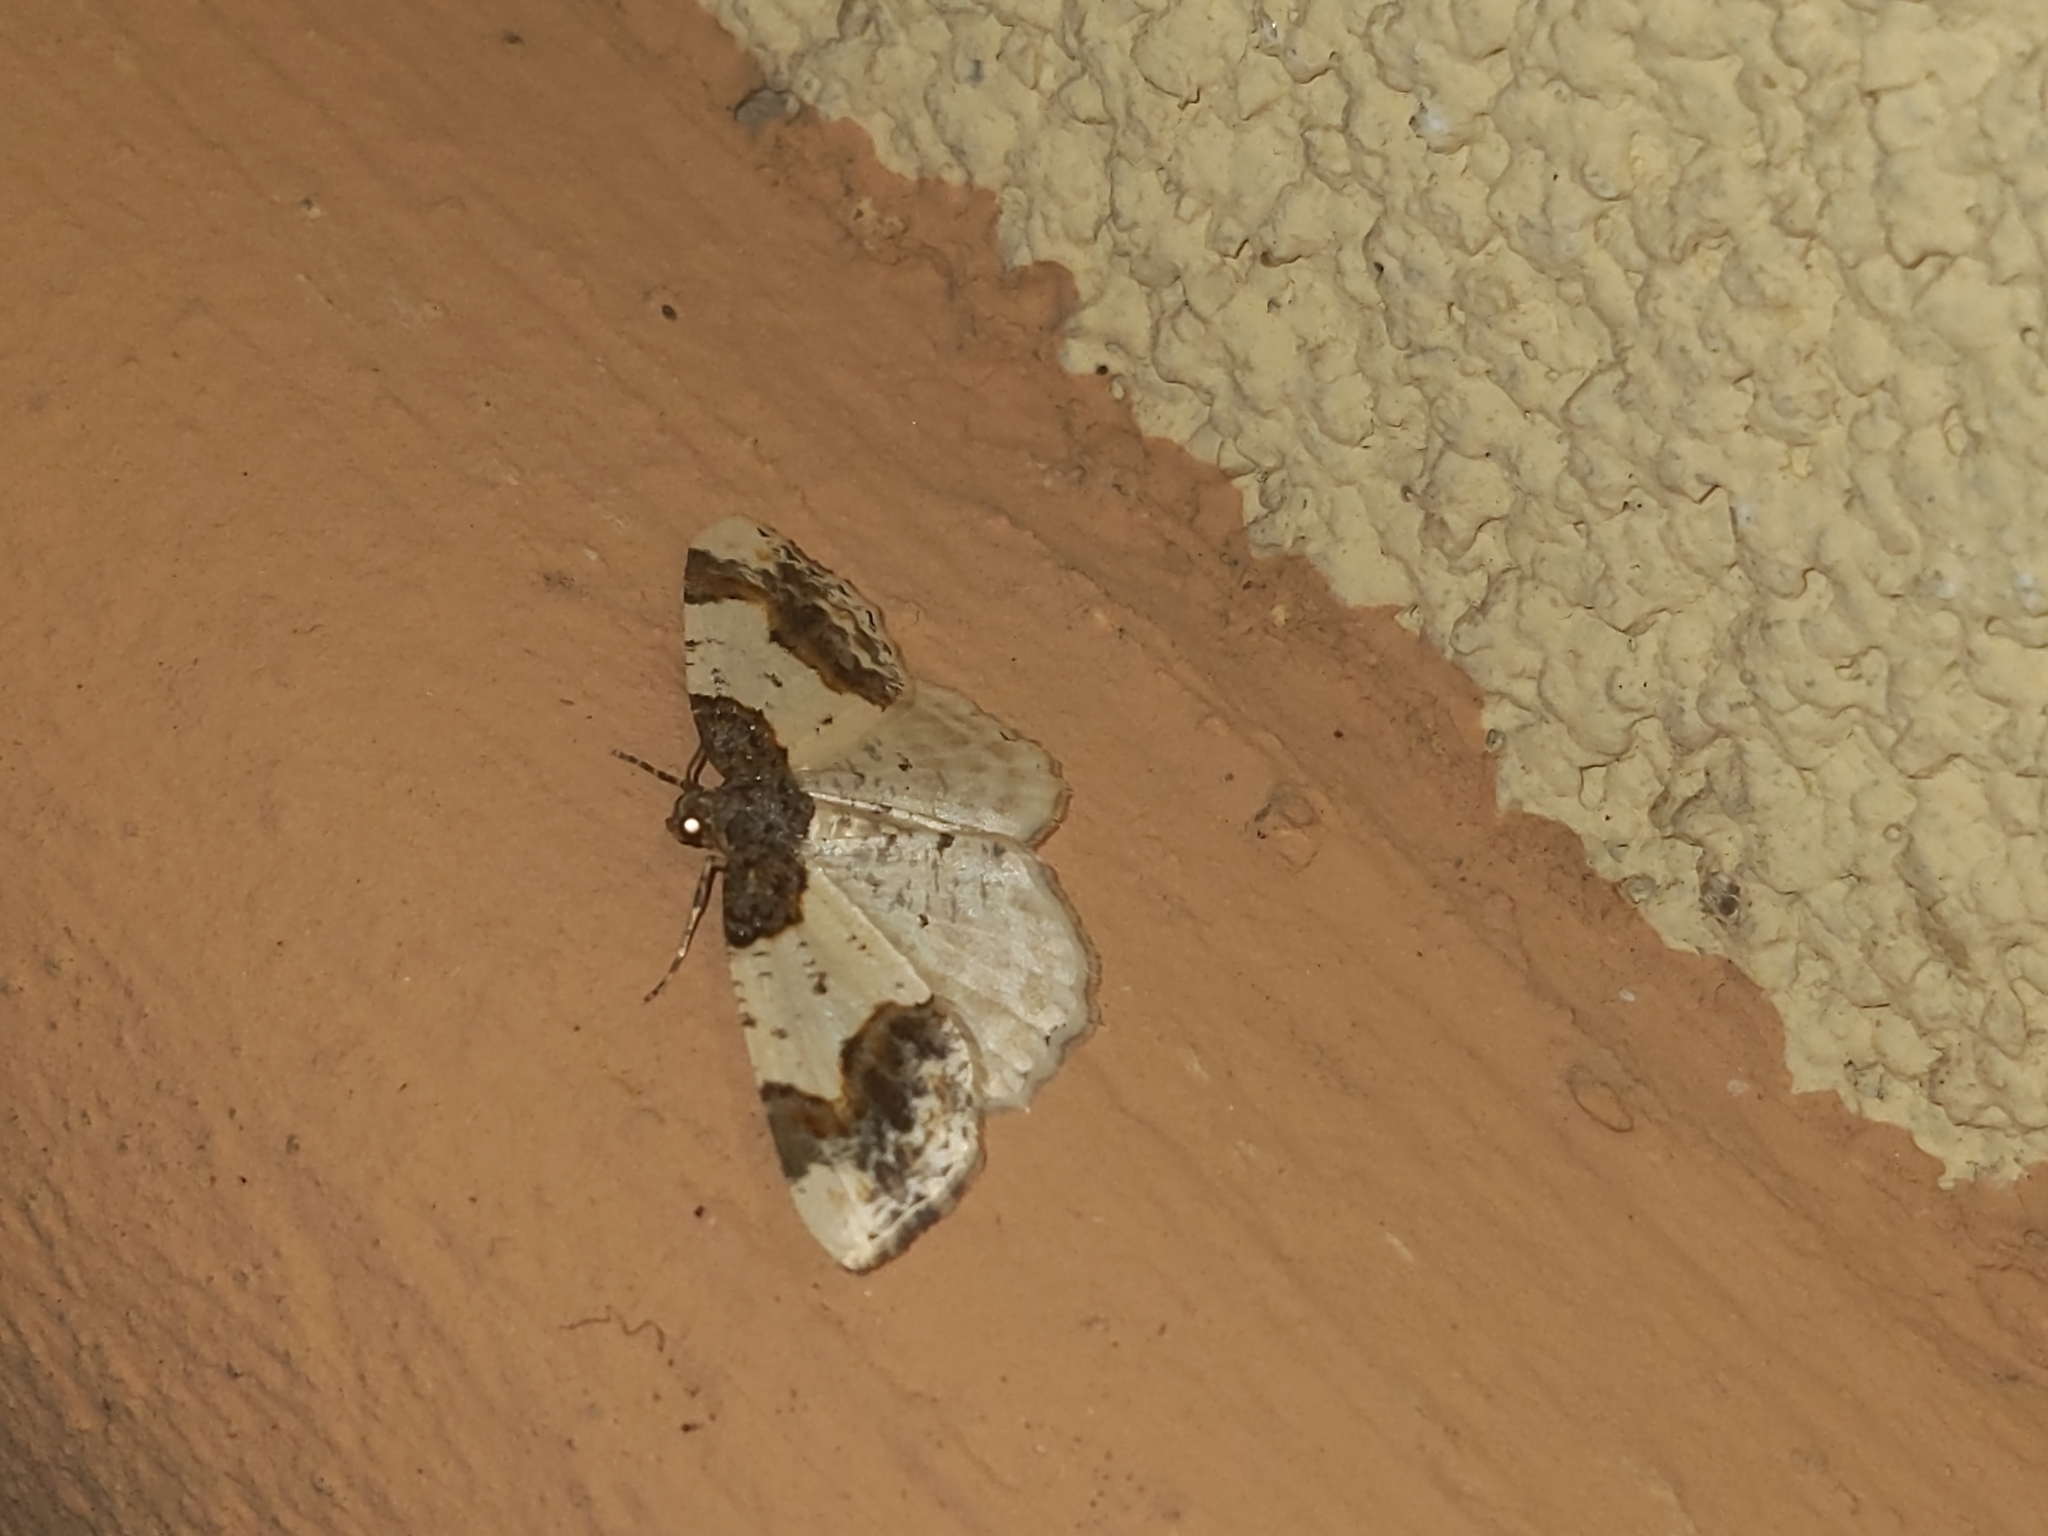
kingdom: Animalia
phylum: Arthropoda
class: Insecta
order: Lepidoptera
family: Geometridae
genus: Ligdia
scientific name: Ligdia adustata
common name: Scorched carpet
